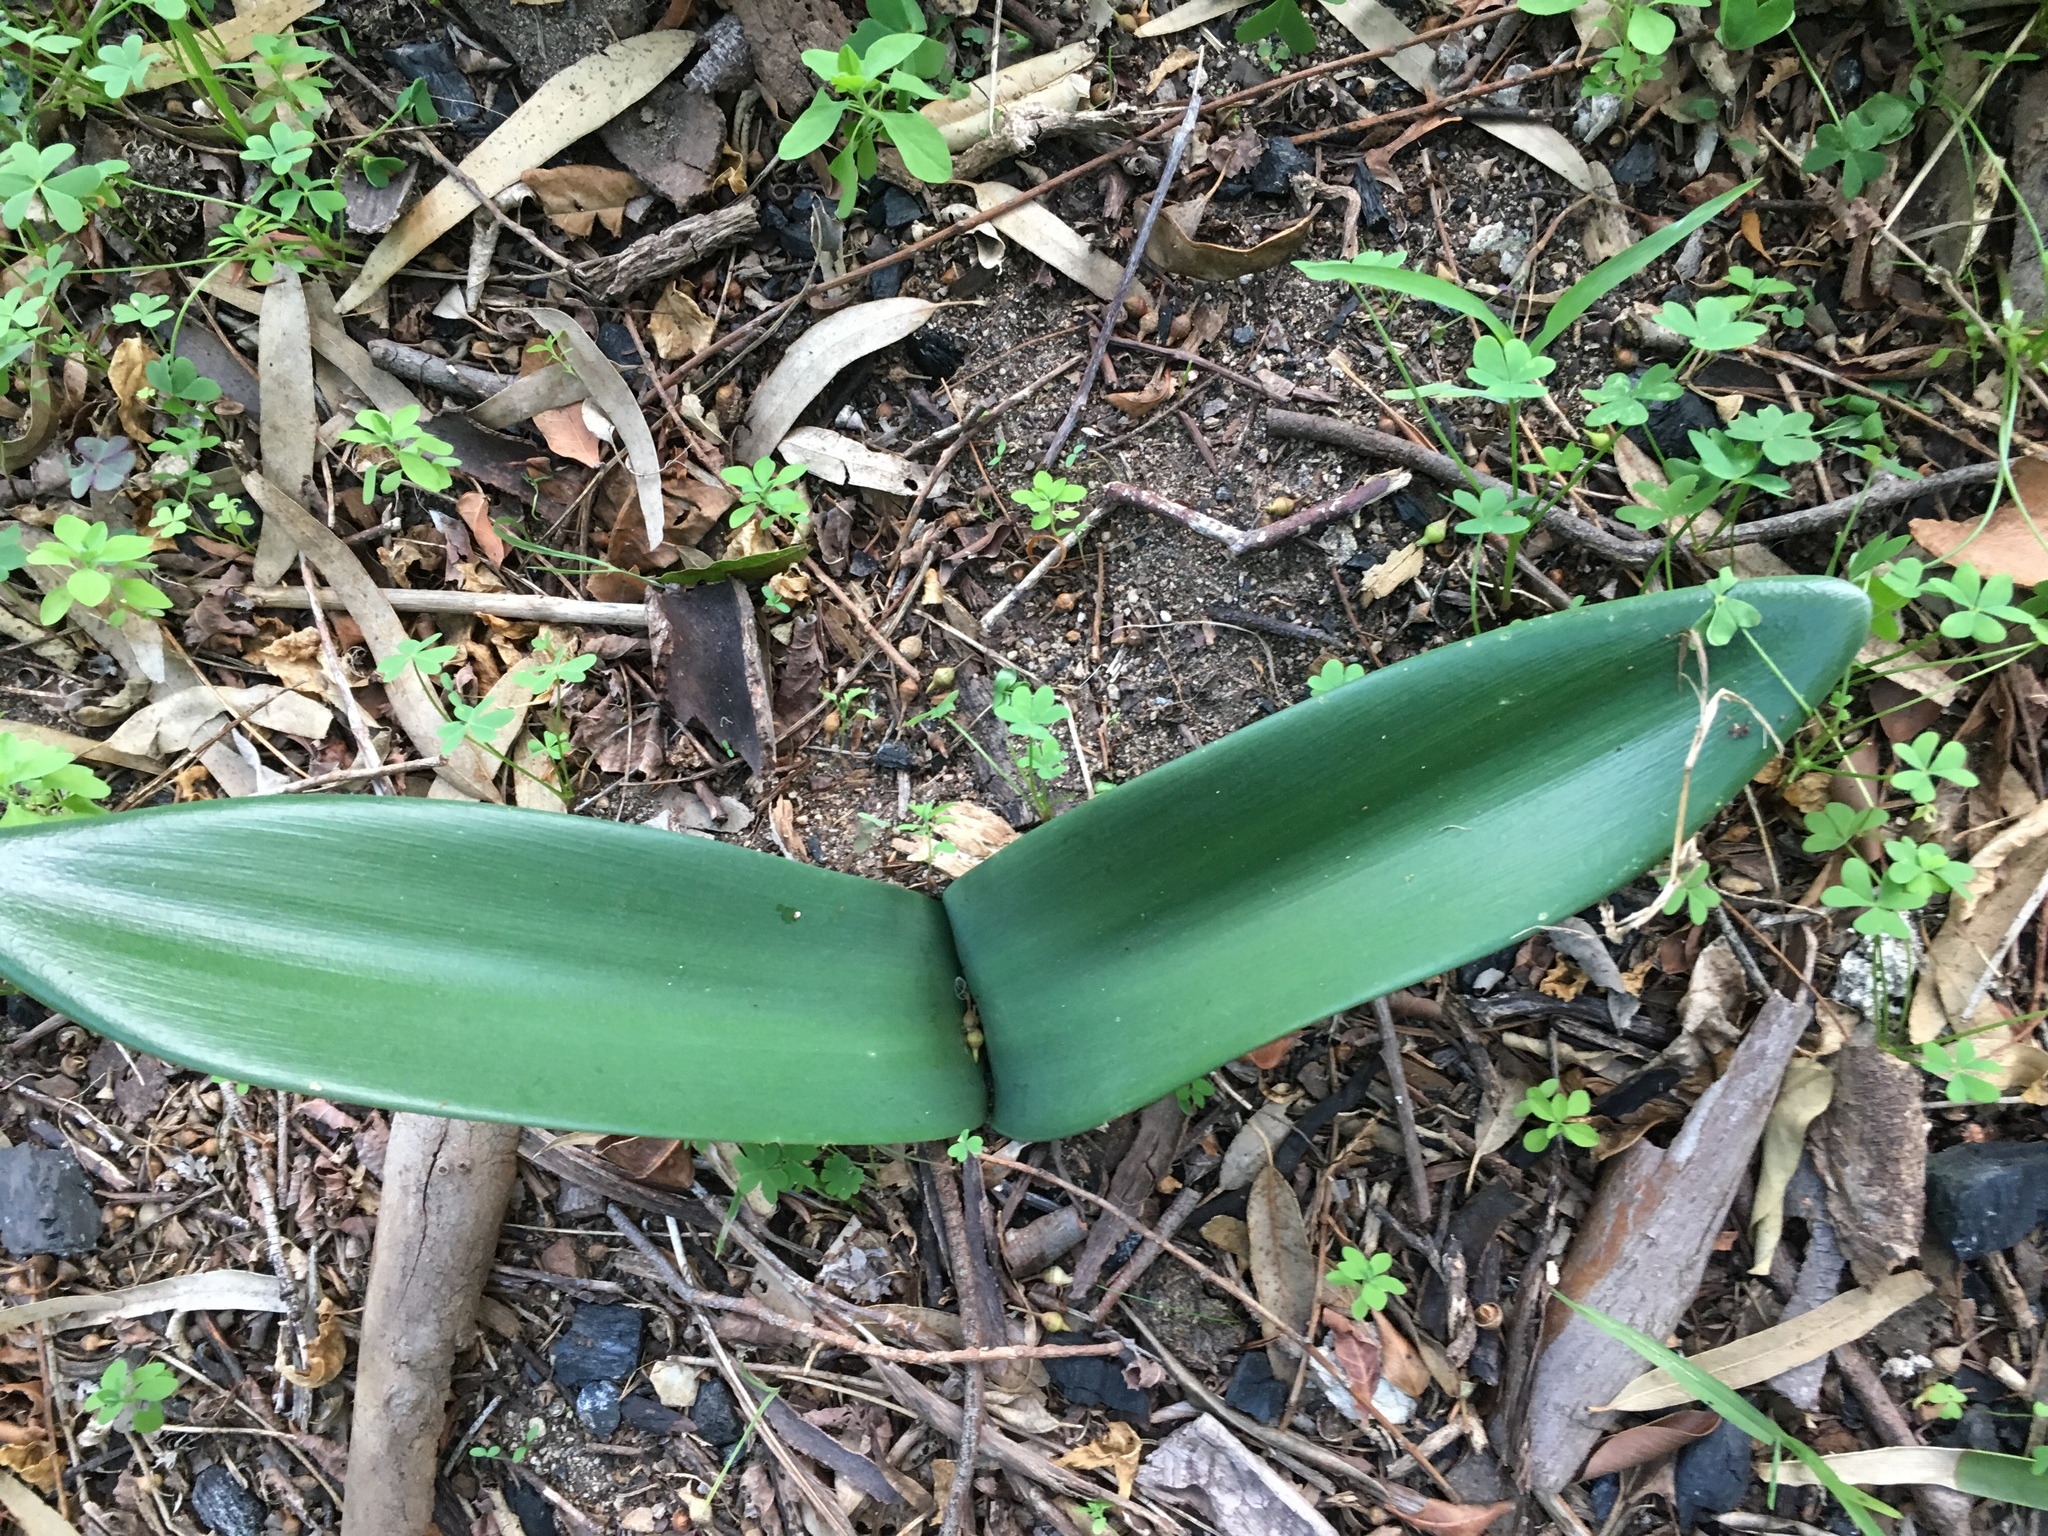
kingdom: Plantae
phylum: Tracheophyta
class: Liliopsida
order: Asparagales
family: Amaryllidaceae
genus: Haemanthus
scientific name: Haemanthus coccineus
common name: Cape-tulip
